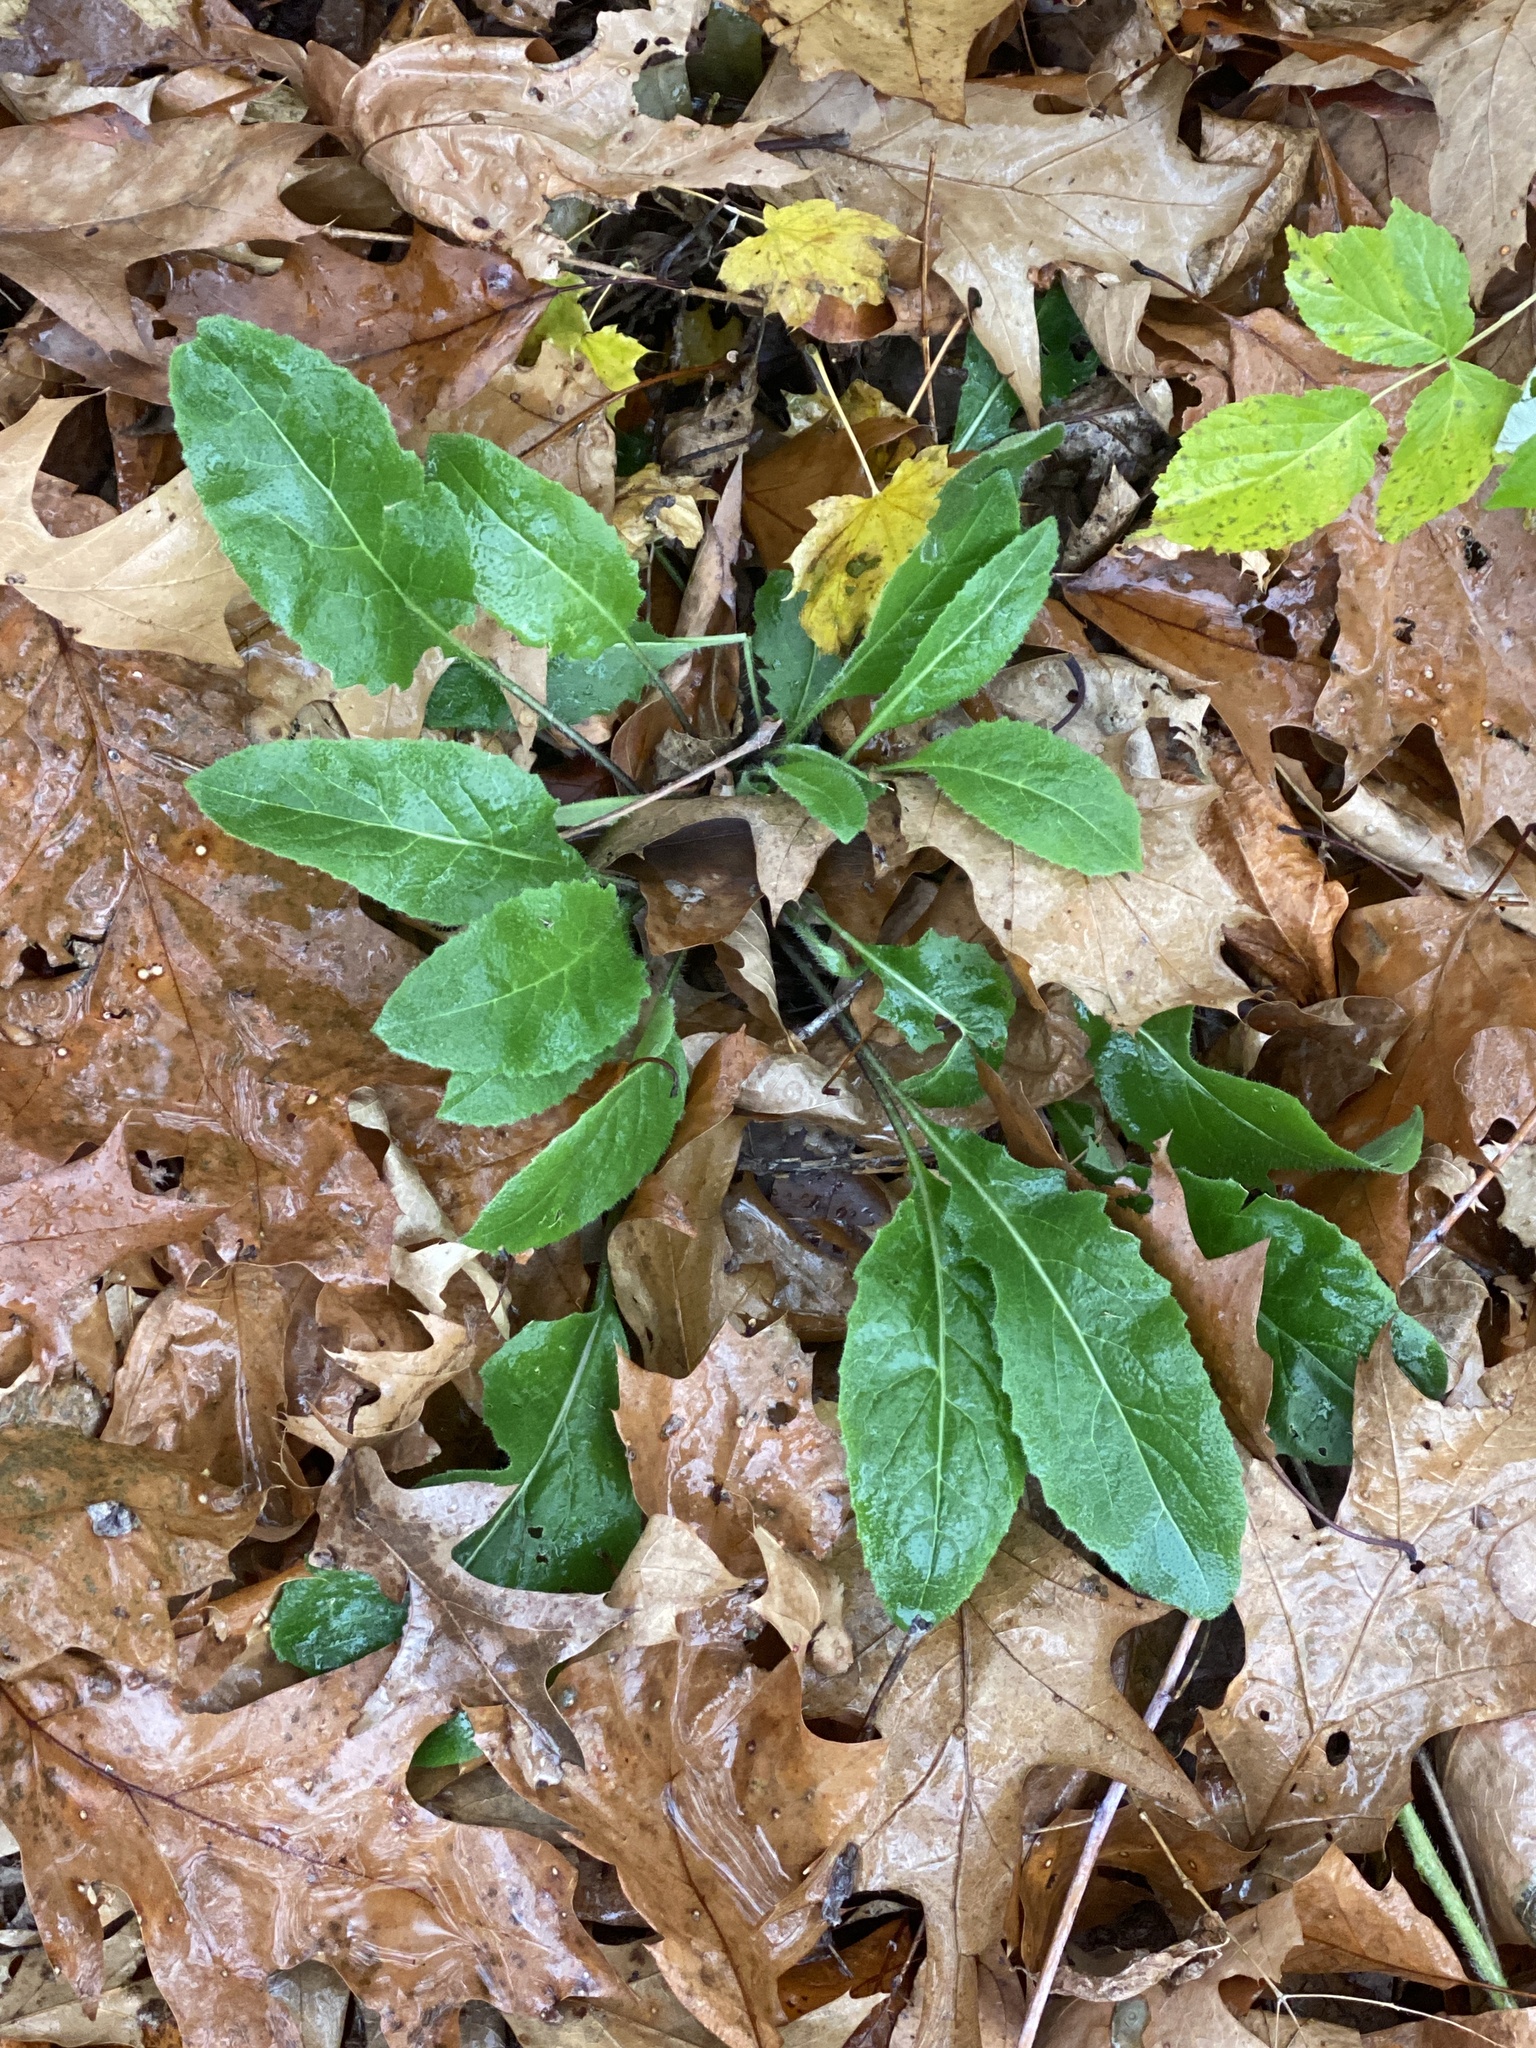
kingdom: Plantae
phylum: Tracheophyta
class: Magnoliopsida
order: Brassicales
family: Brassicaceae
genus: Hesperis
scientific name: Hesperis matronalis
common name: Dame's-violet
